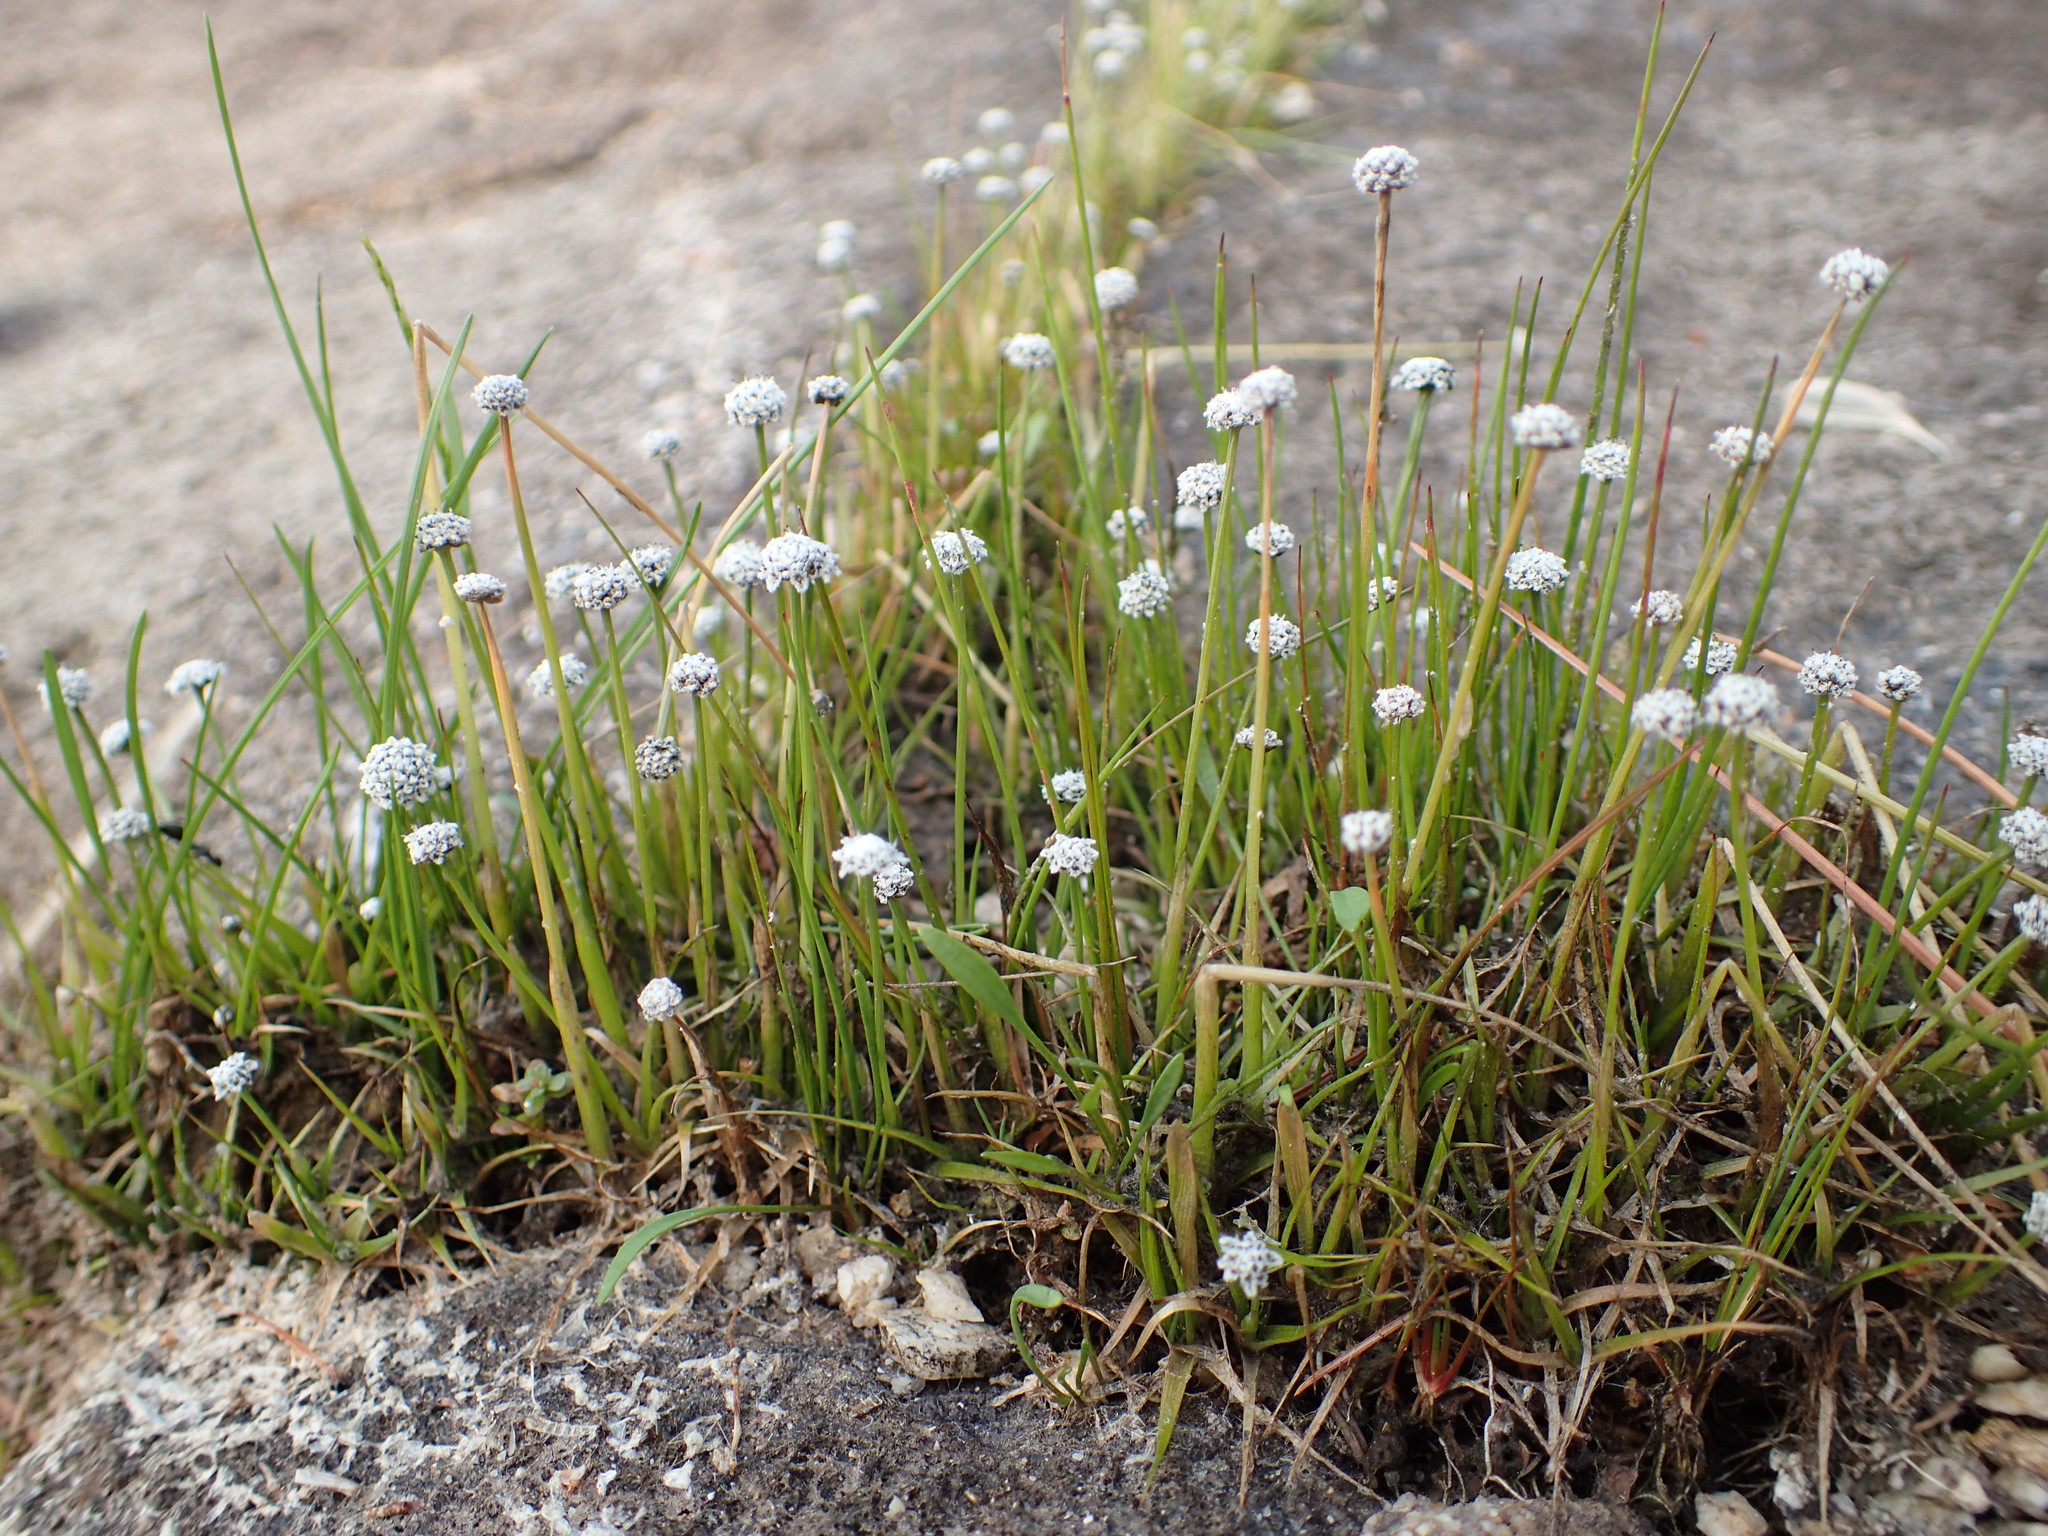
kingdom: Plantae
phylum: Tracheophyta
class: Liliopsida
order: Poales
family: Eriocaulaceae
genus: Eriocaulon
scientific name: Eriocaulon aquaticum
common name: Pipewort
